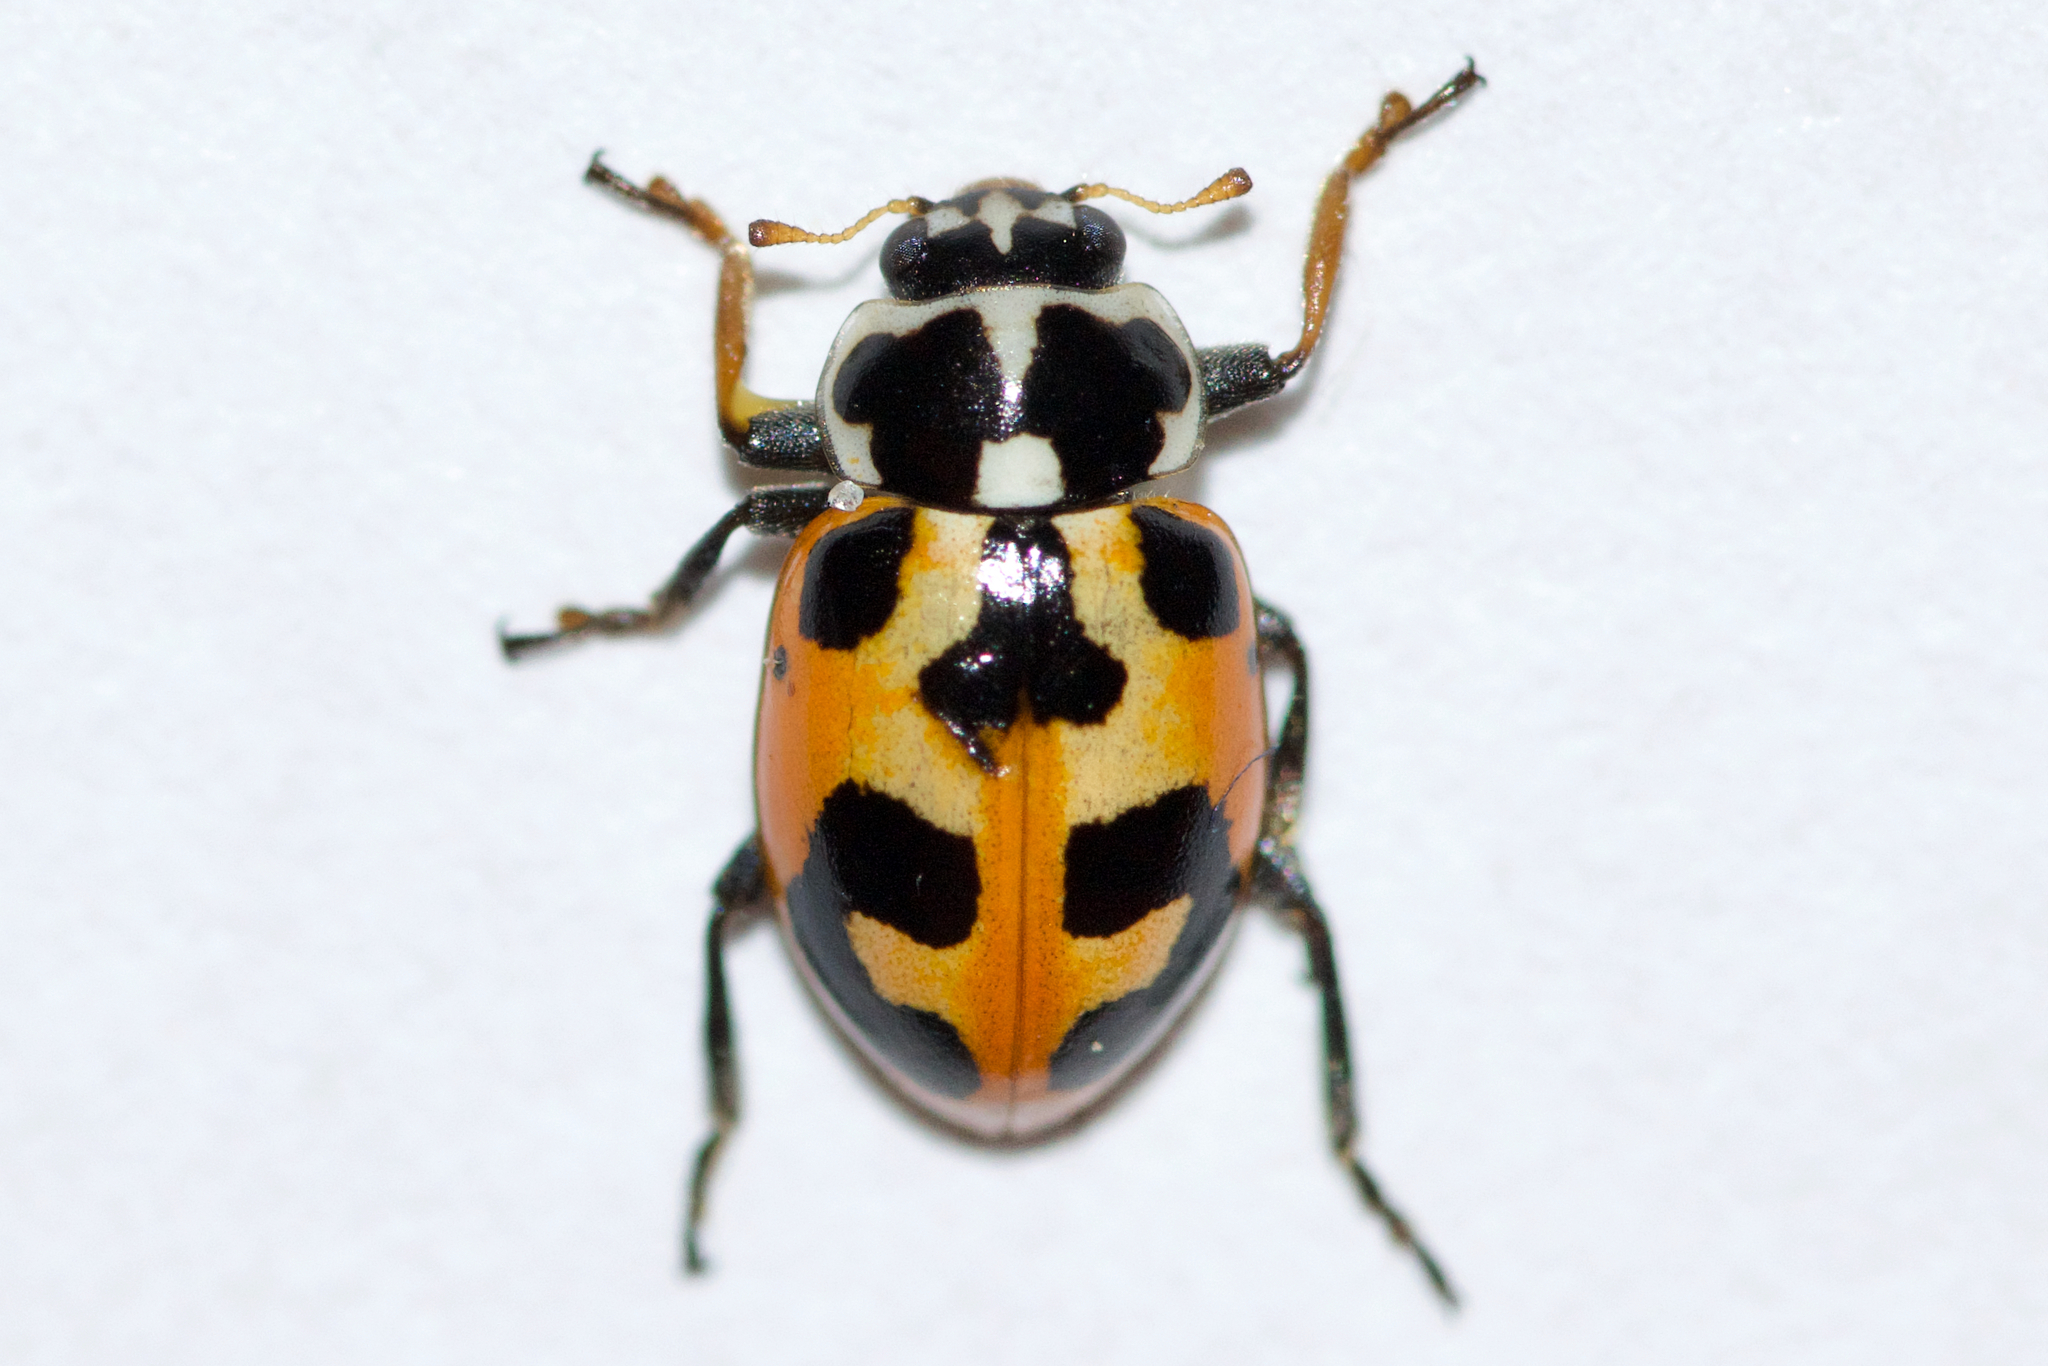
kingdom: Animalia
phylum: Arthropoda
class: Insecta
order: Coleoptera
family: Coccinellidae
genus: Hippodamia
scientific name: Hippodamia parenthesis
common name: Parenthesis lady beetle
